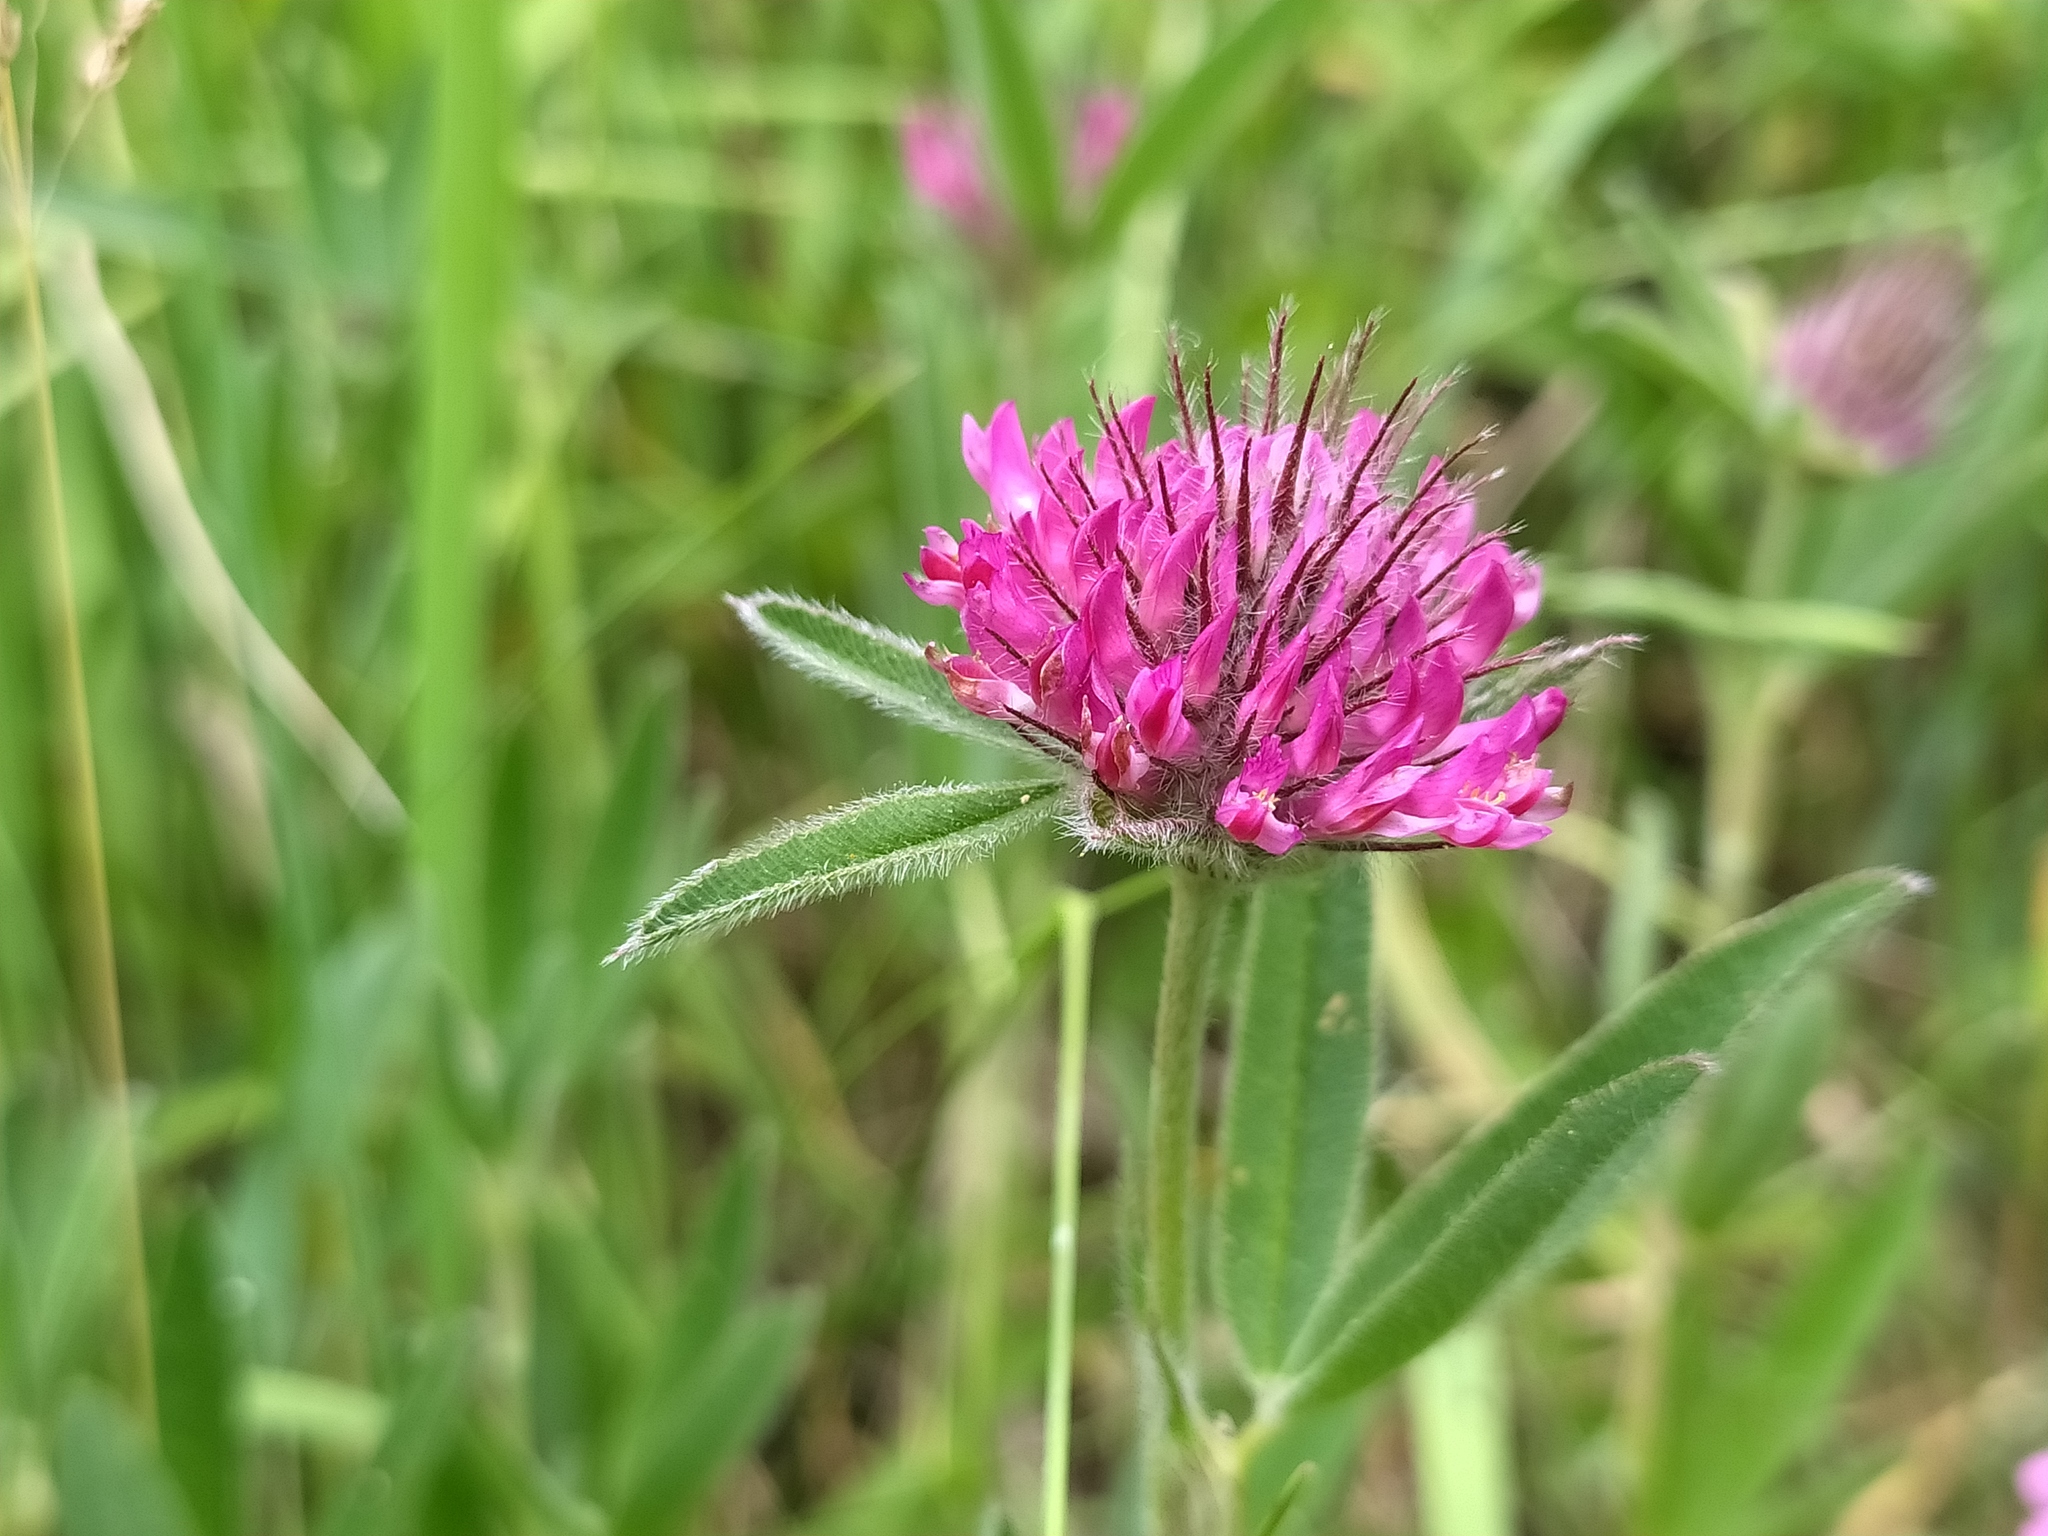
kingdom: Plantae
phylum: Tracheophyta
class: Magnoliopsida
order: Fabales
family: Fabaceae
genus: Trifolium
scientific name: Trifolium alpestre
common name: Owl-head clover
